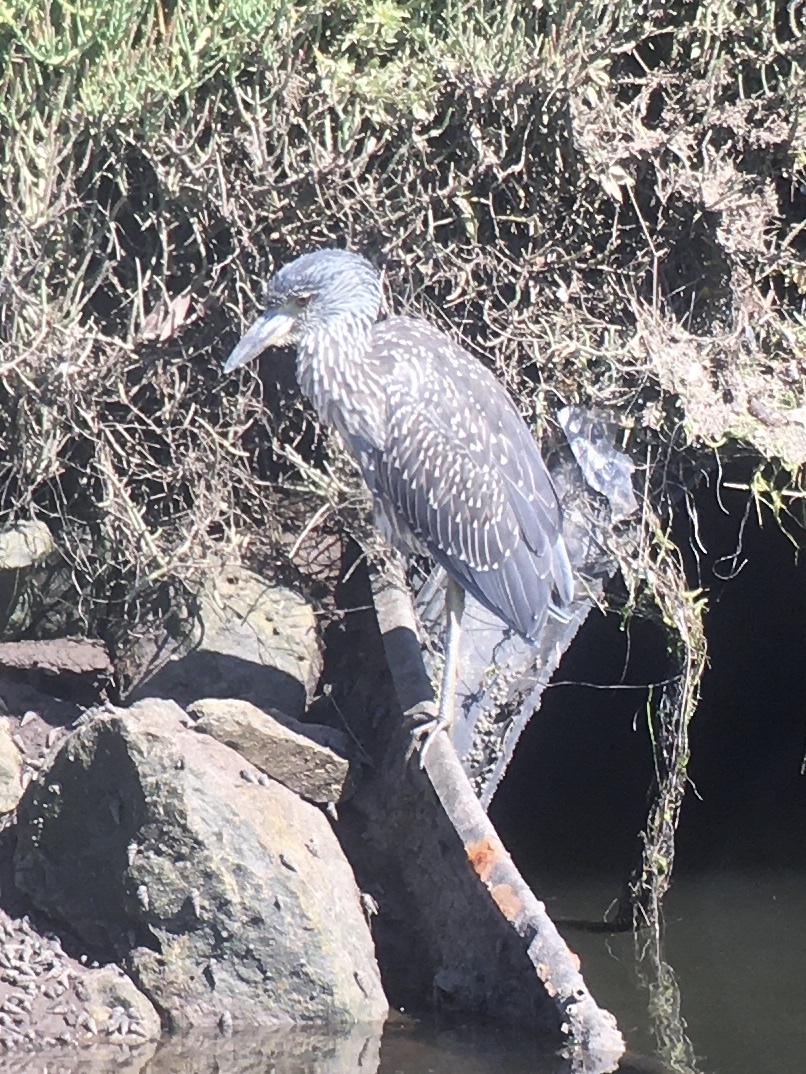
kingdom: Animalia
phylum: Chordata
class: Aves
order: Pelecaniformes
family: Ardeidae
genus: Nyctanassa
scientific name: Nyctanassa violacea
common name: Yellow-crowned night heron
